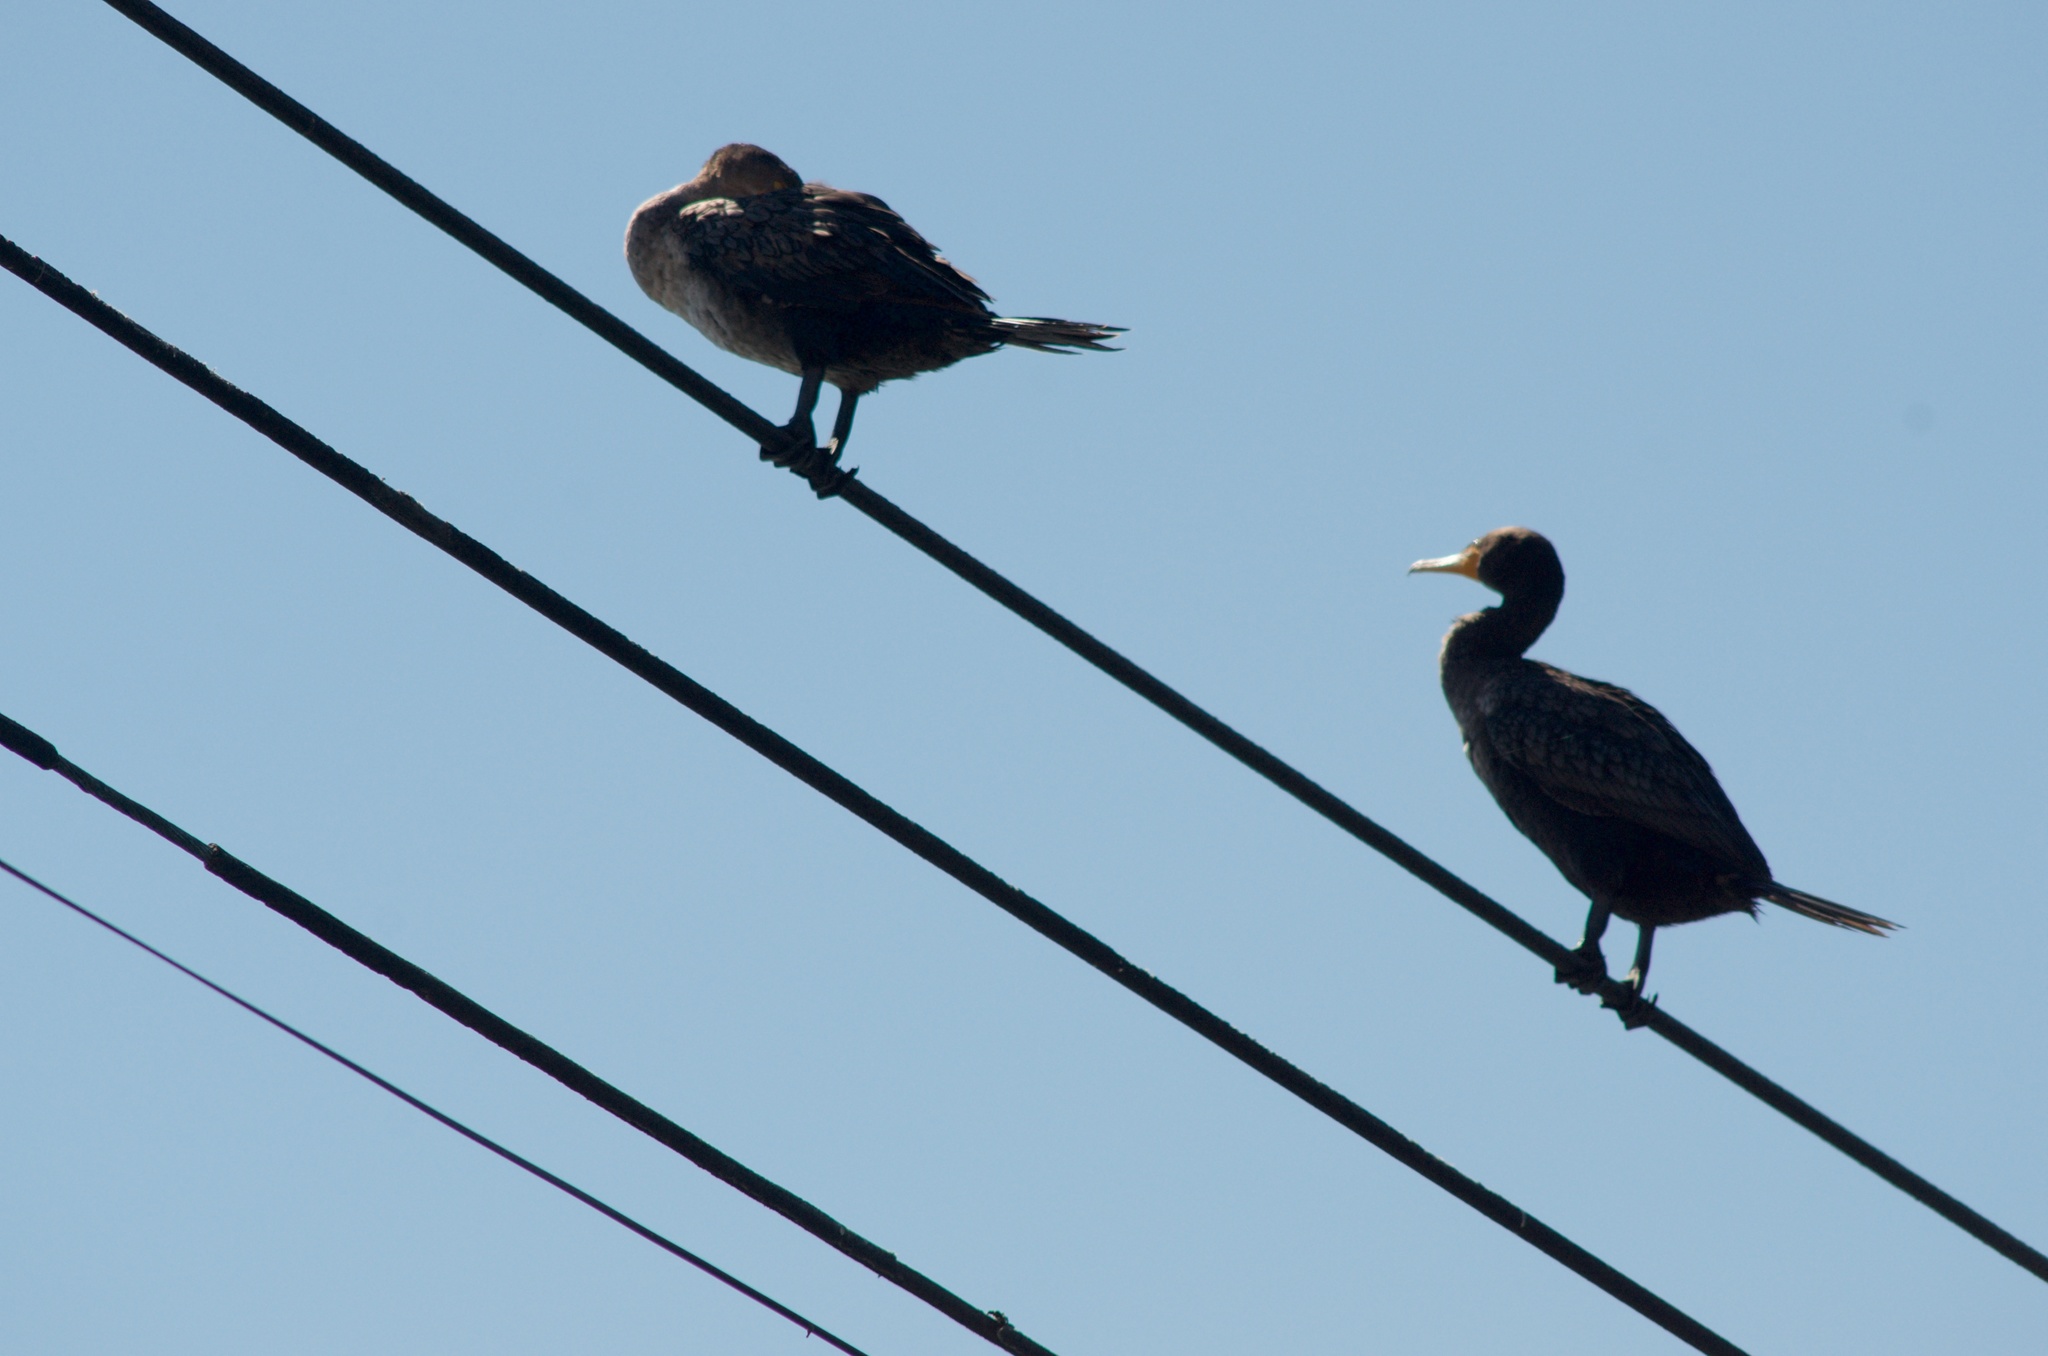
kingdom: Animalia
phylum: Chordata
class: Aves
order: Suliformes
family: Phalacrocoracidae
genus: Phalacrocorax
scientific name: Phalacrocorax auritus
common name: Double-crested cormorant
